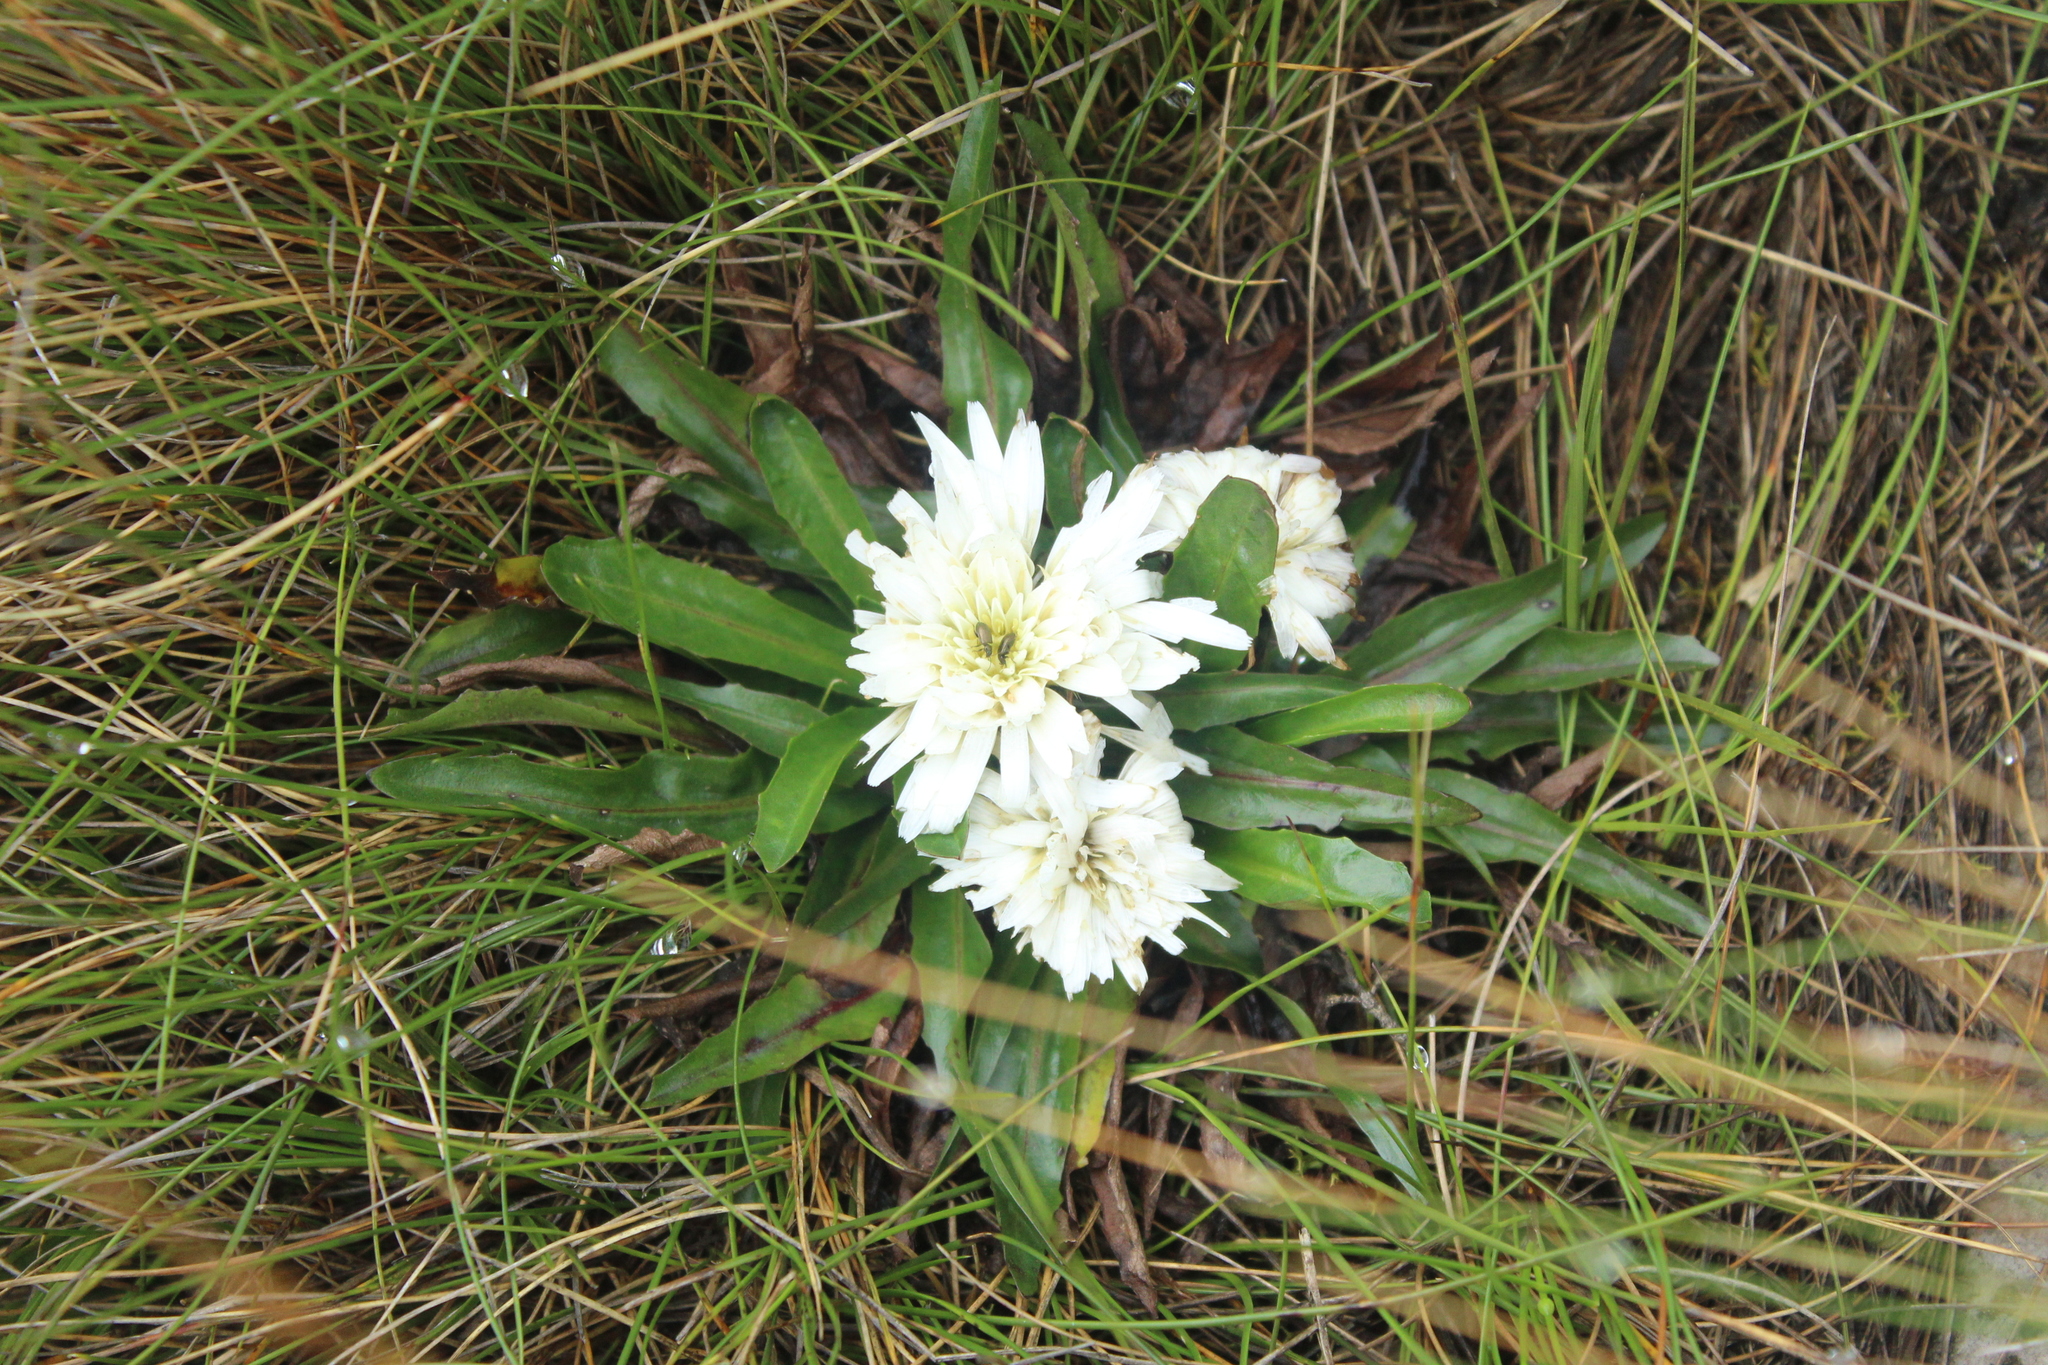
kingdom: Plantae
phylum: Tracheophyta
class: Magnoliopsida
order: Asterales
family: Asteraceae
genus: Hypochaeris
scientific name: Hypochaeris sessiliflora
